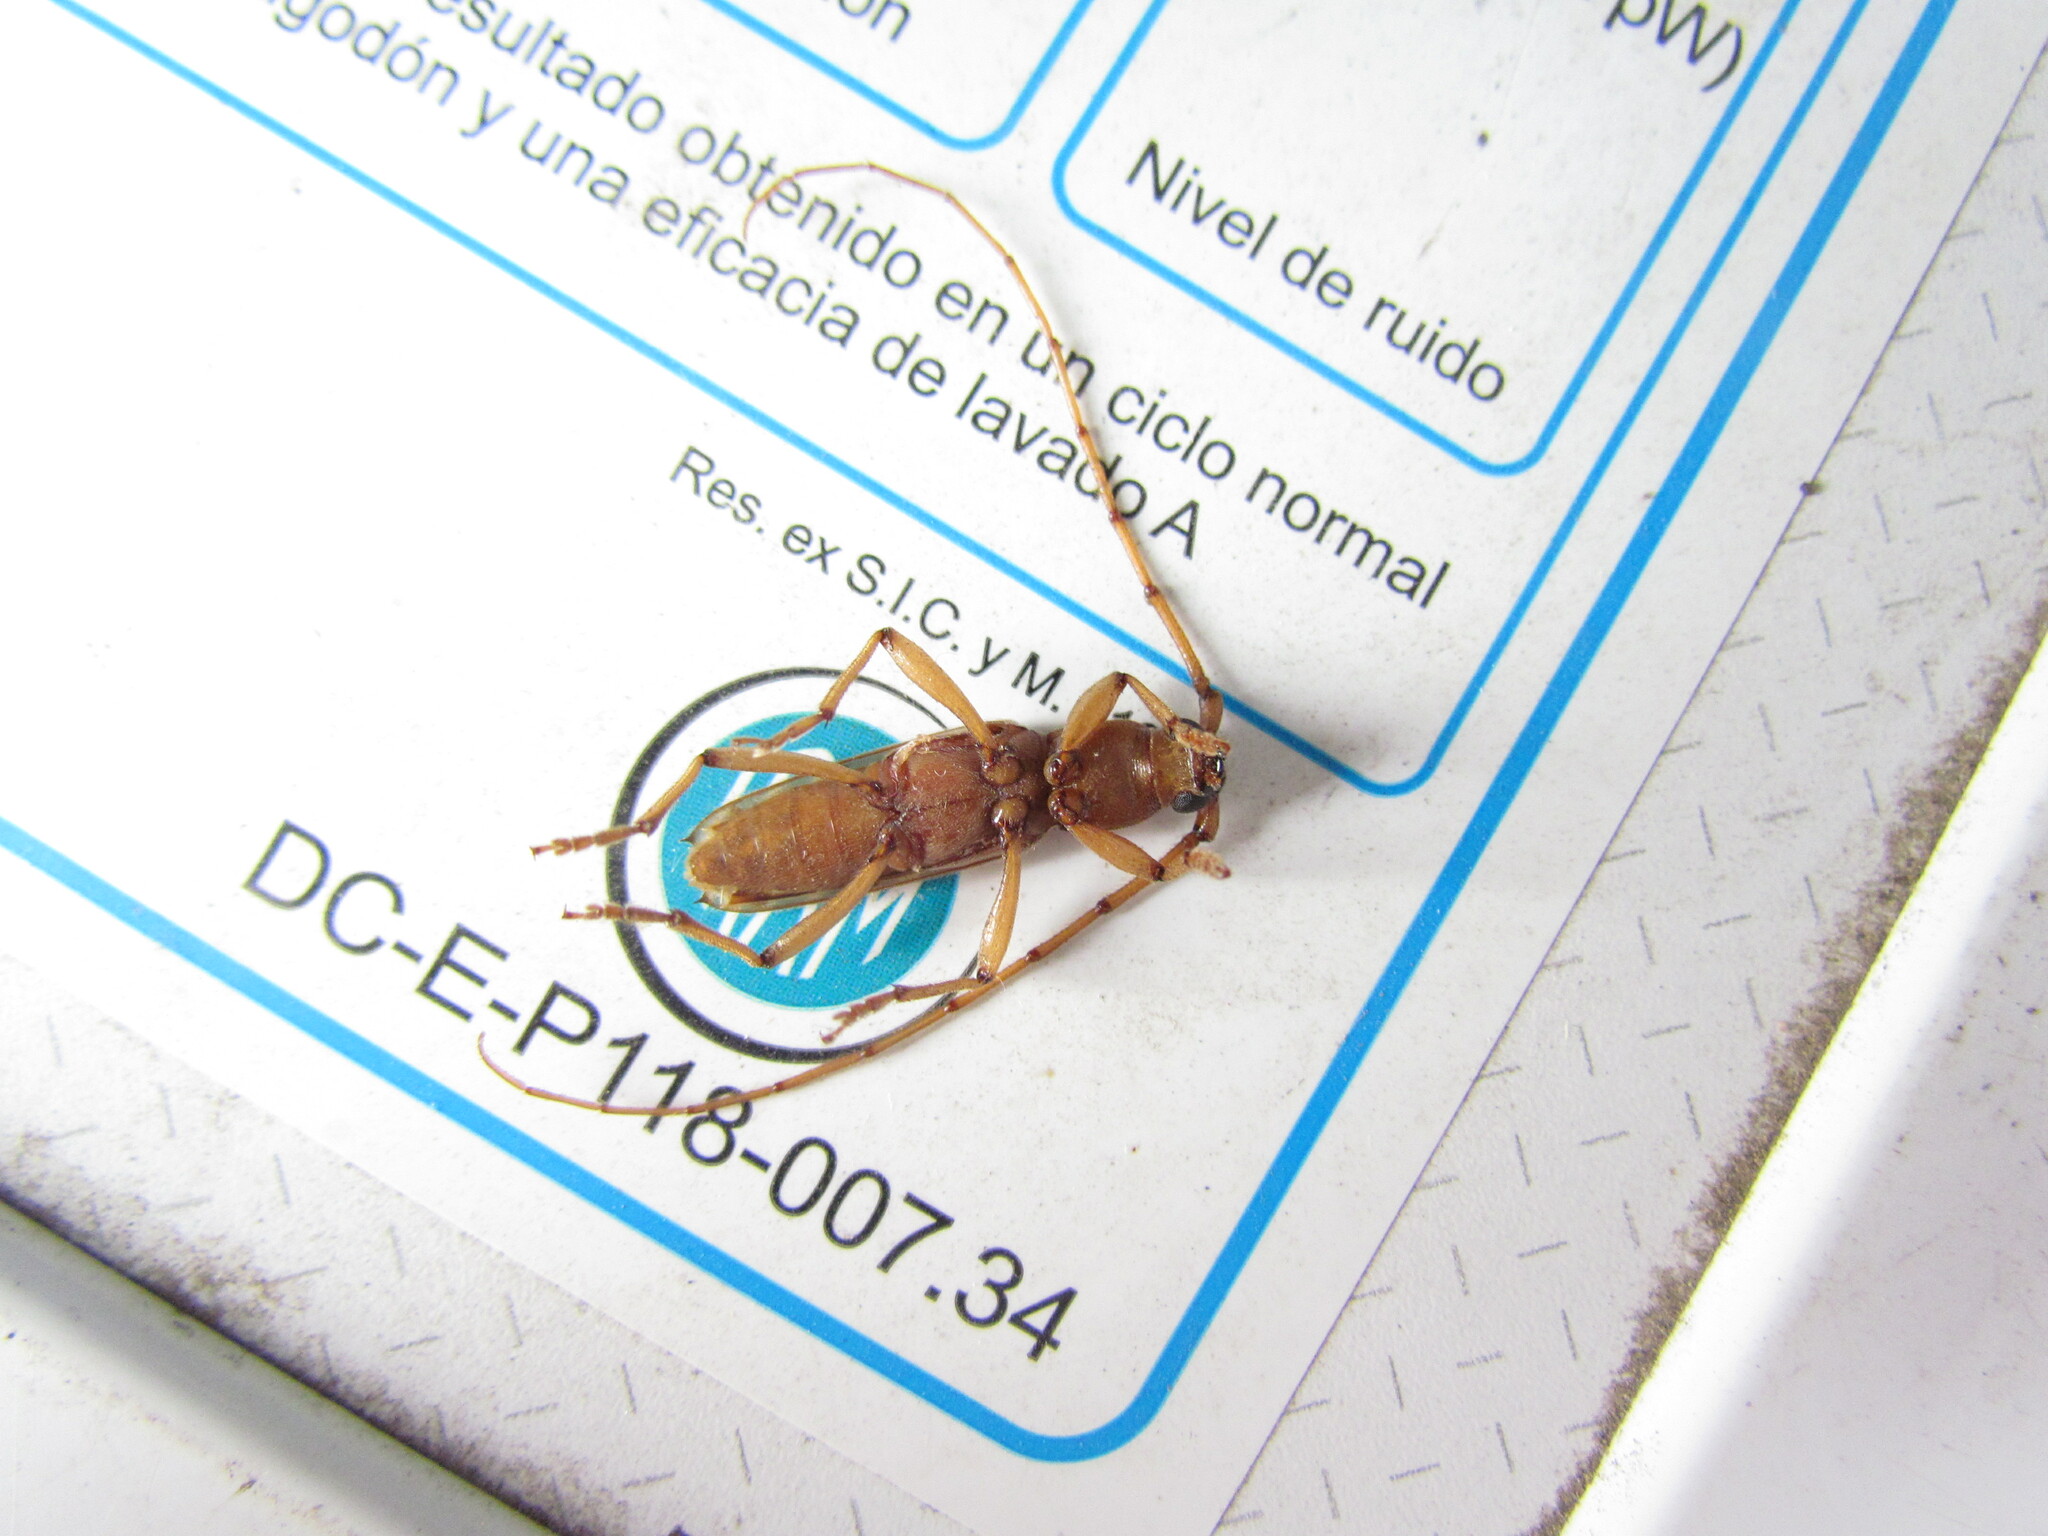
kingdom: Animalia
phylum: Arthropoda
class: Insecta
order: Coleoptera
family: Cerambycidae
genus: Achryson
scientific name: Achryson surinamum
